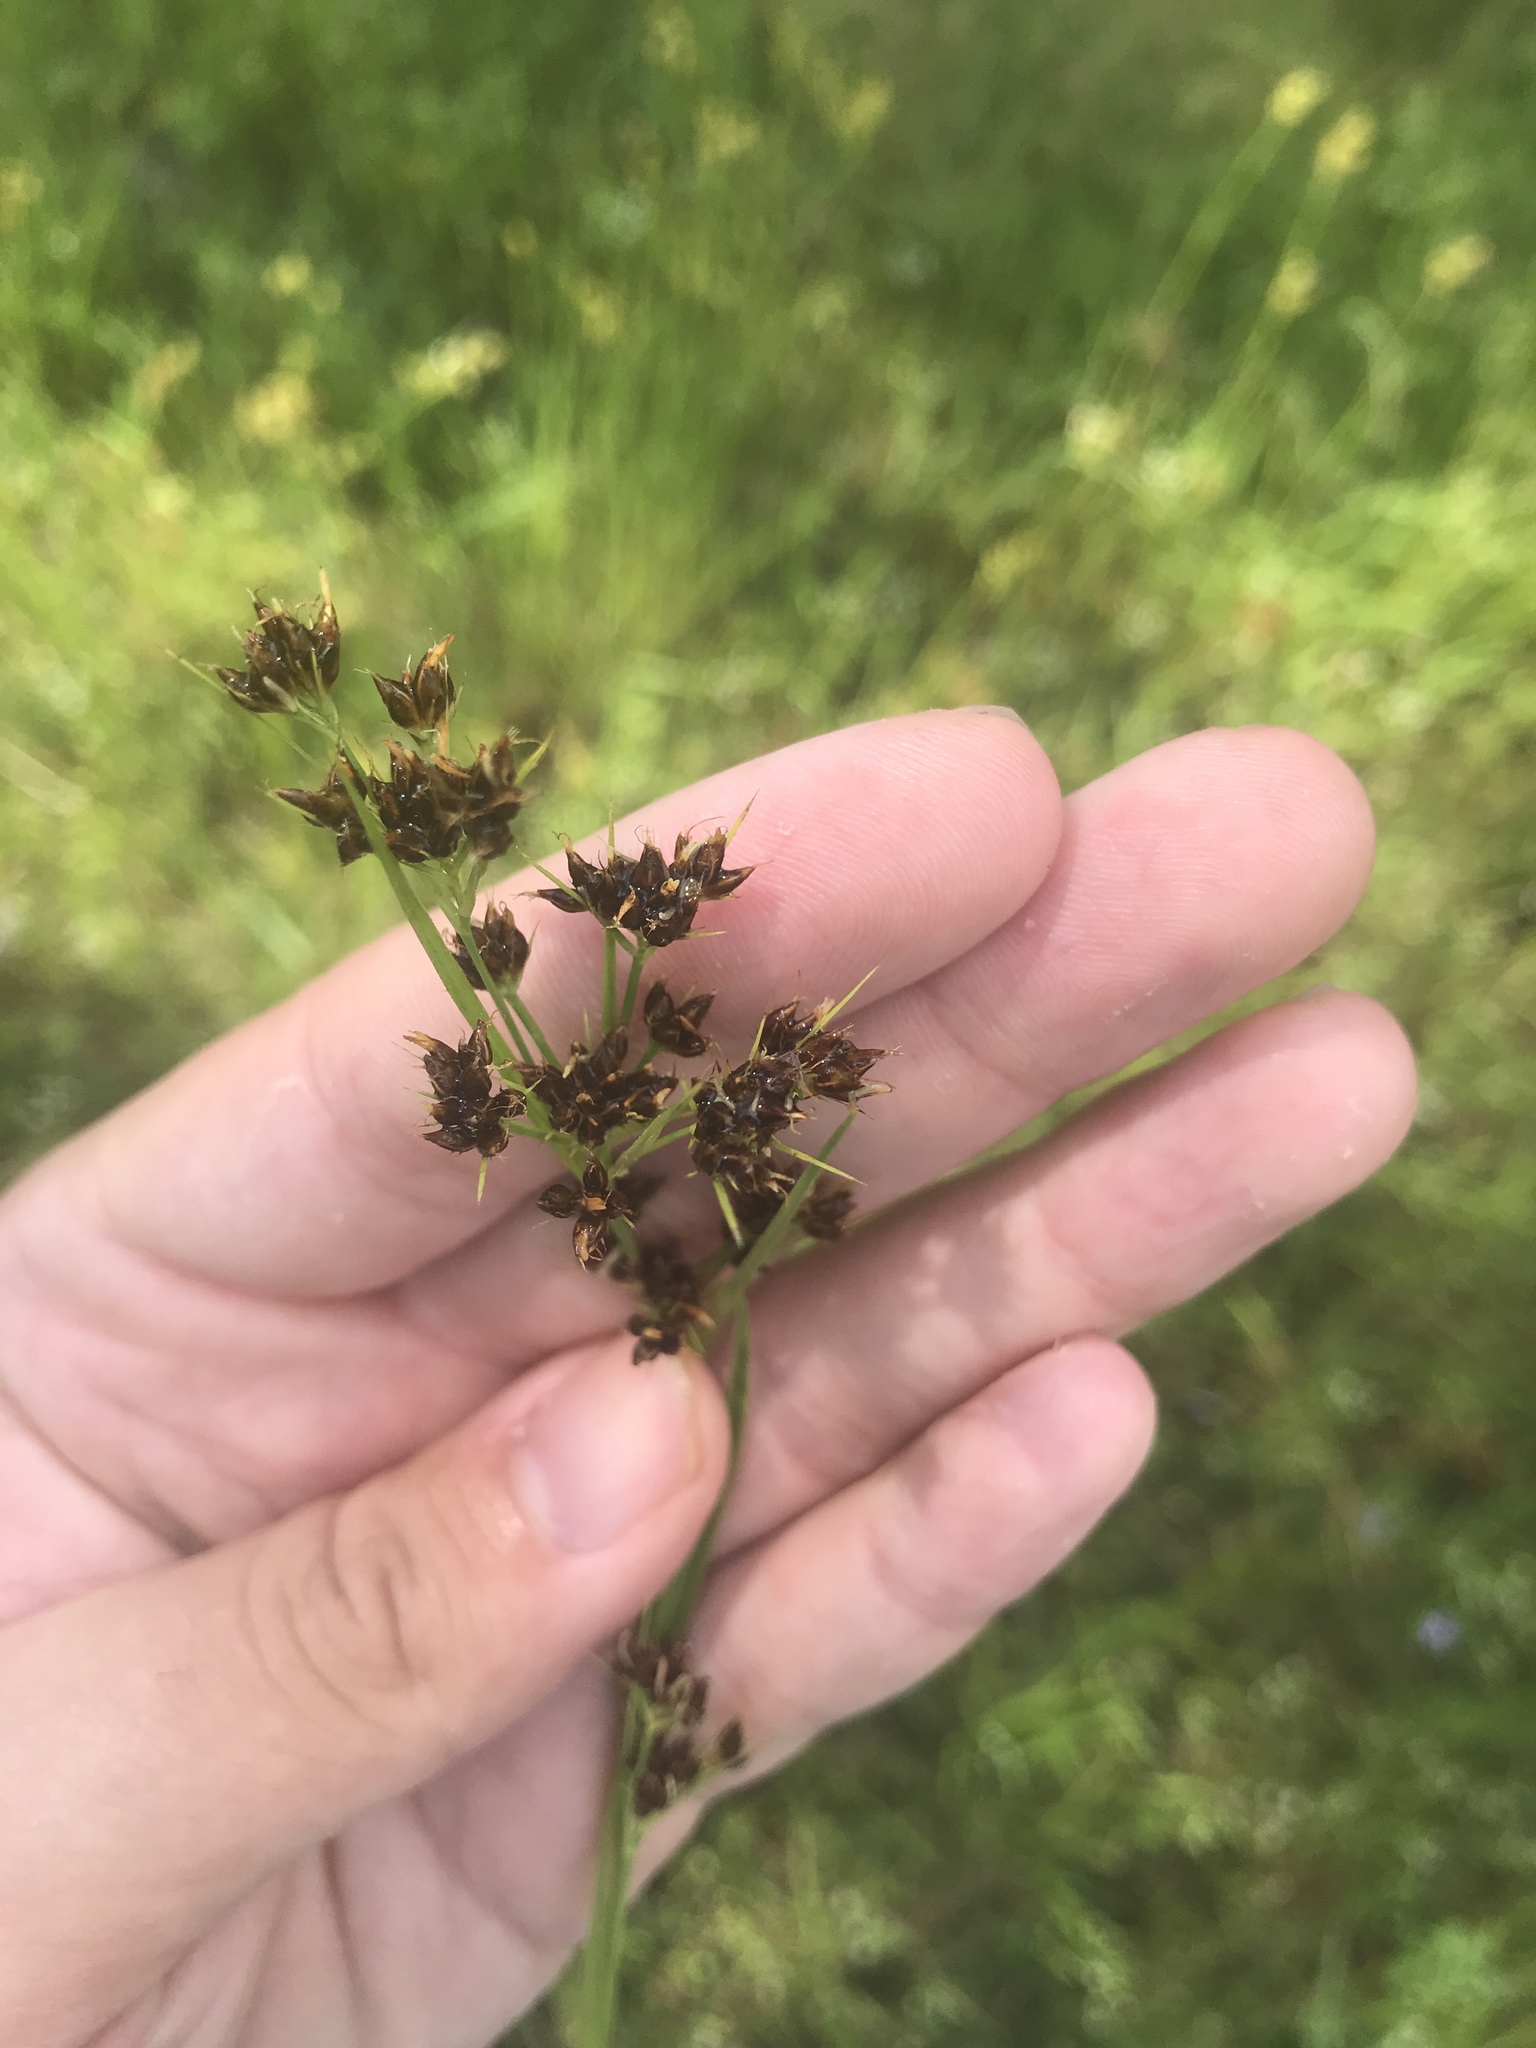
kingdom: Plantae
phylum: Tracheophyta
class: Liliopsida
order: Poales
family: Cyperaceae
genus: Rhynchospora
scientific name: Rhynchospora recognita
